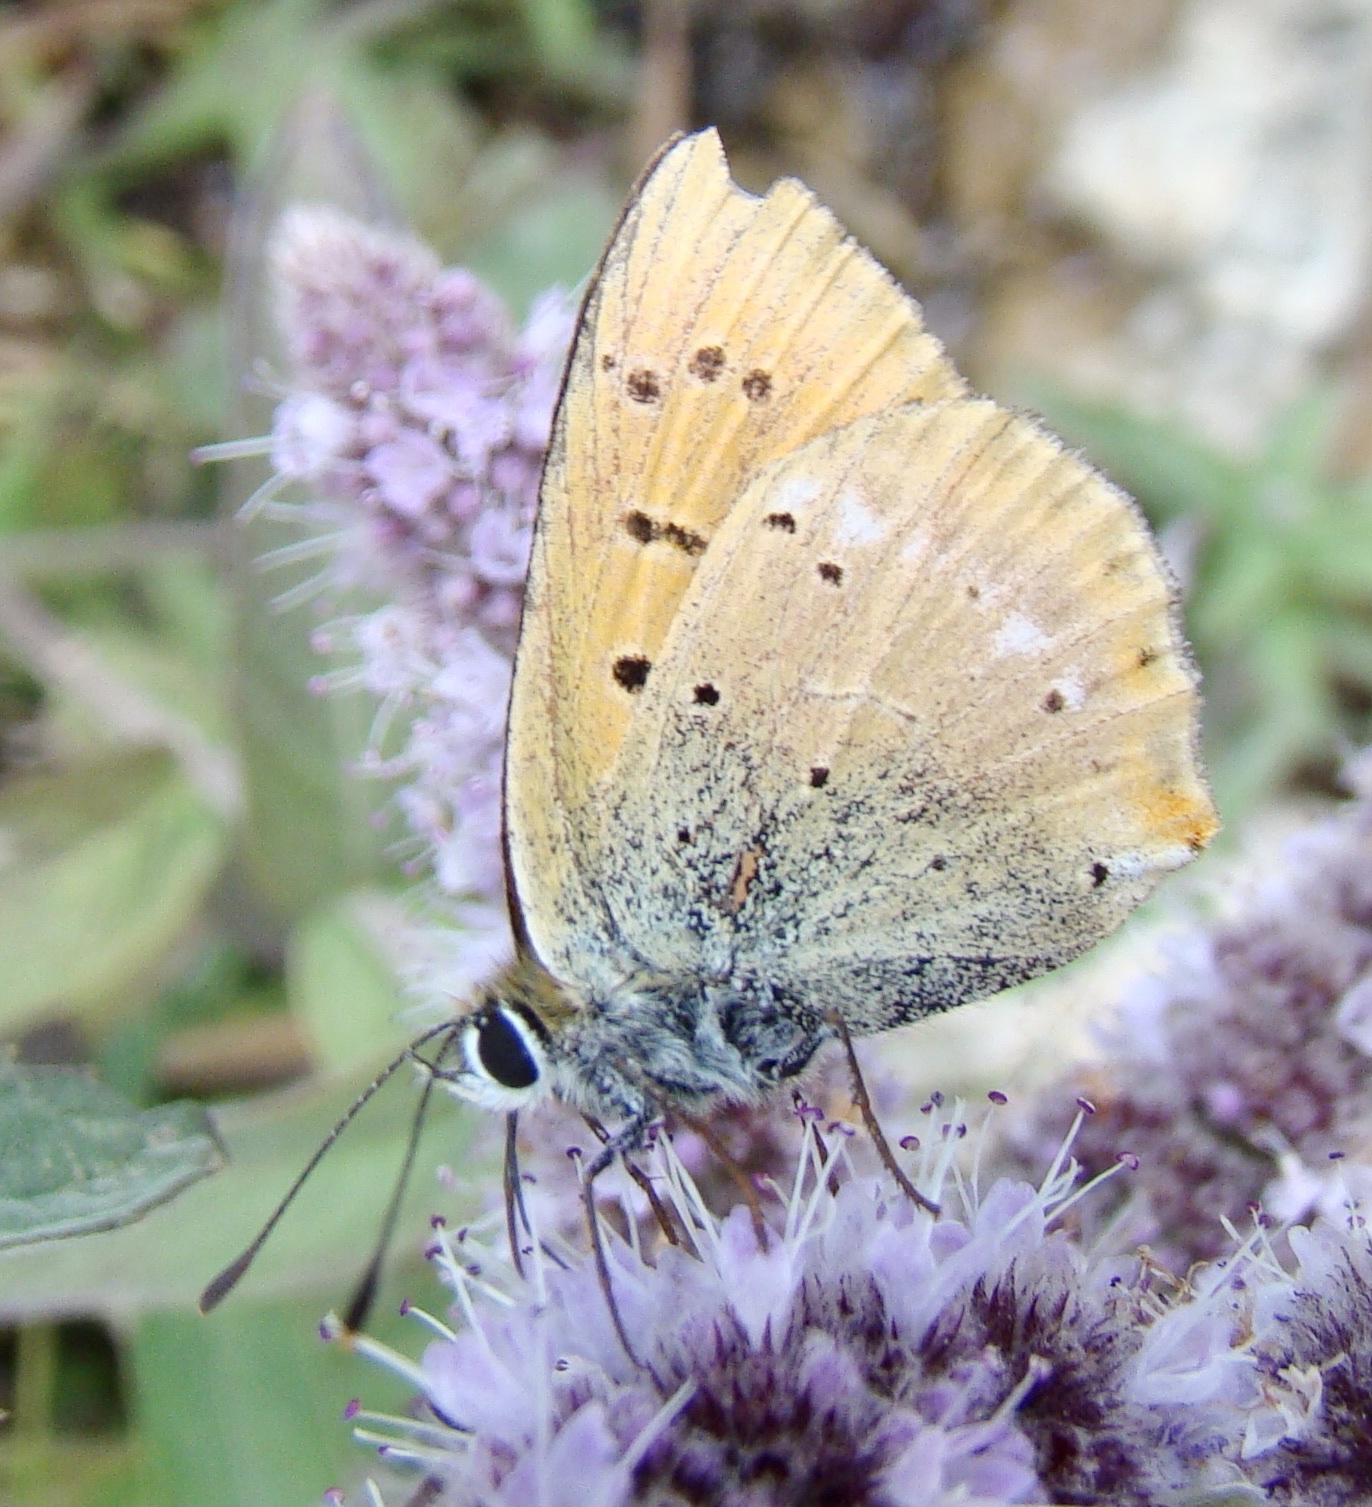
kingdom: Animalia
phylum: Arthropoda
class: Insecta
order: Lepidoptera
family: Lycaenidae
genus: Lycaena
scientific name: Lycaena virgaureae
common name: Scarce copper
